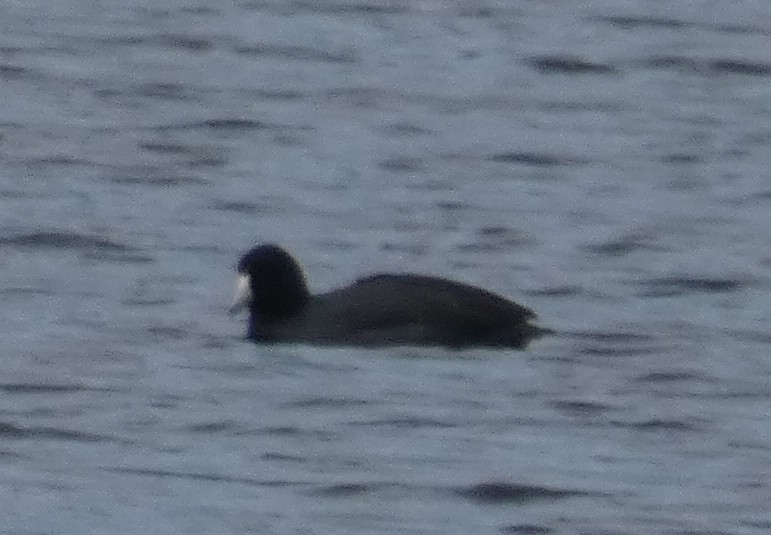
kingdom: Animalia
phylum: Chordata
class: Aves
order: Gruiformes
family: Rallidae
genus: Fulica
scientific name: Fulica americana
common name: American coot
